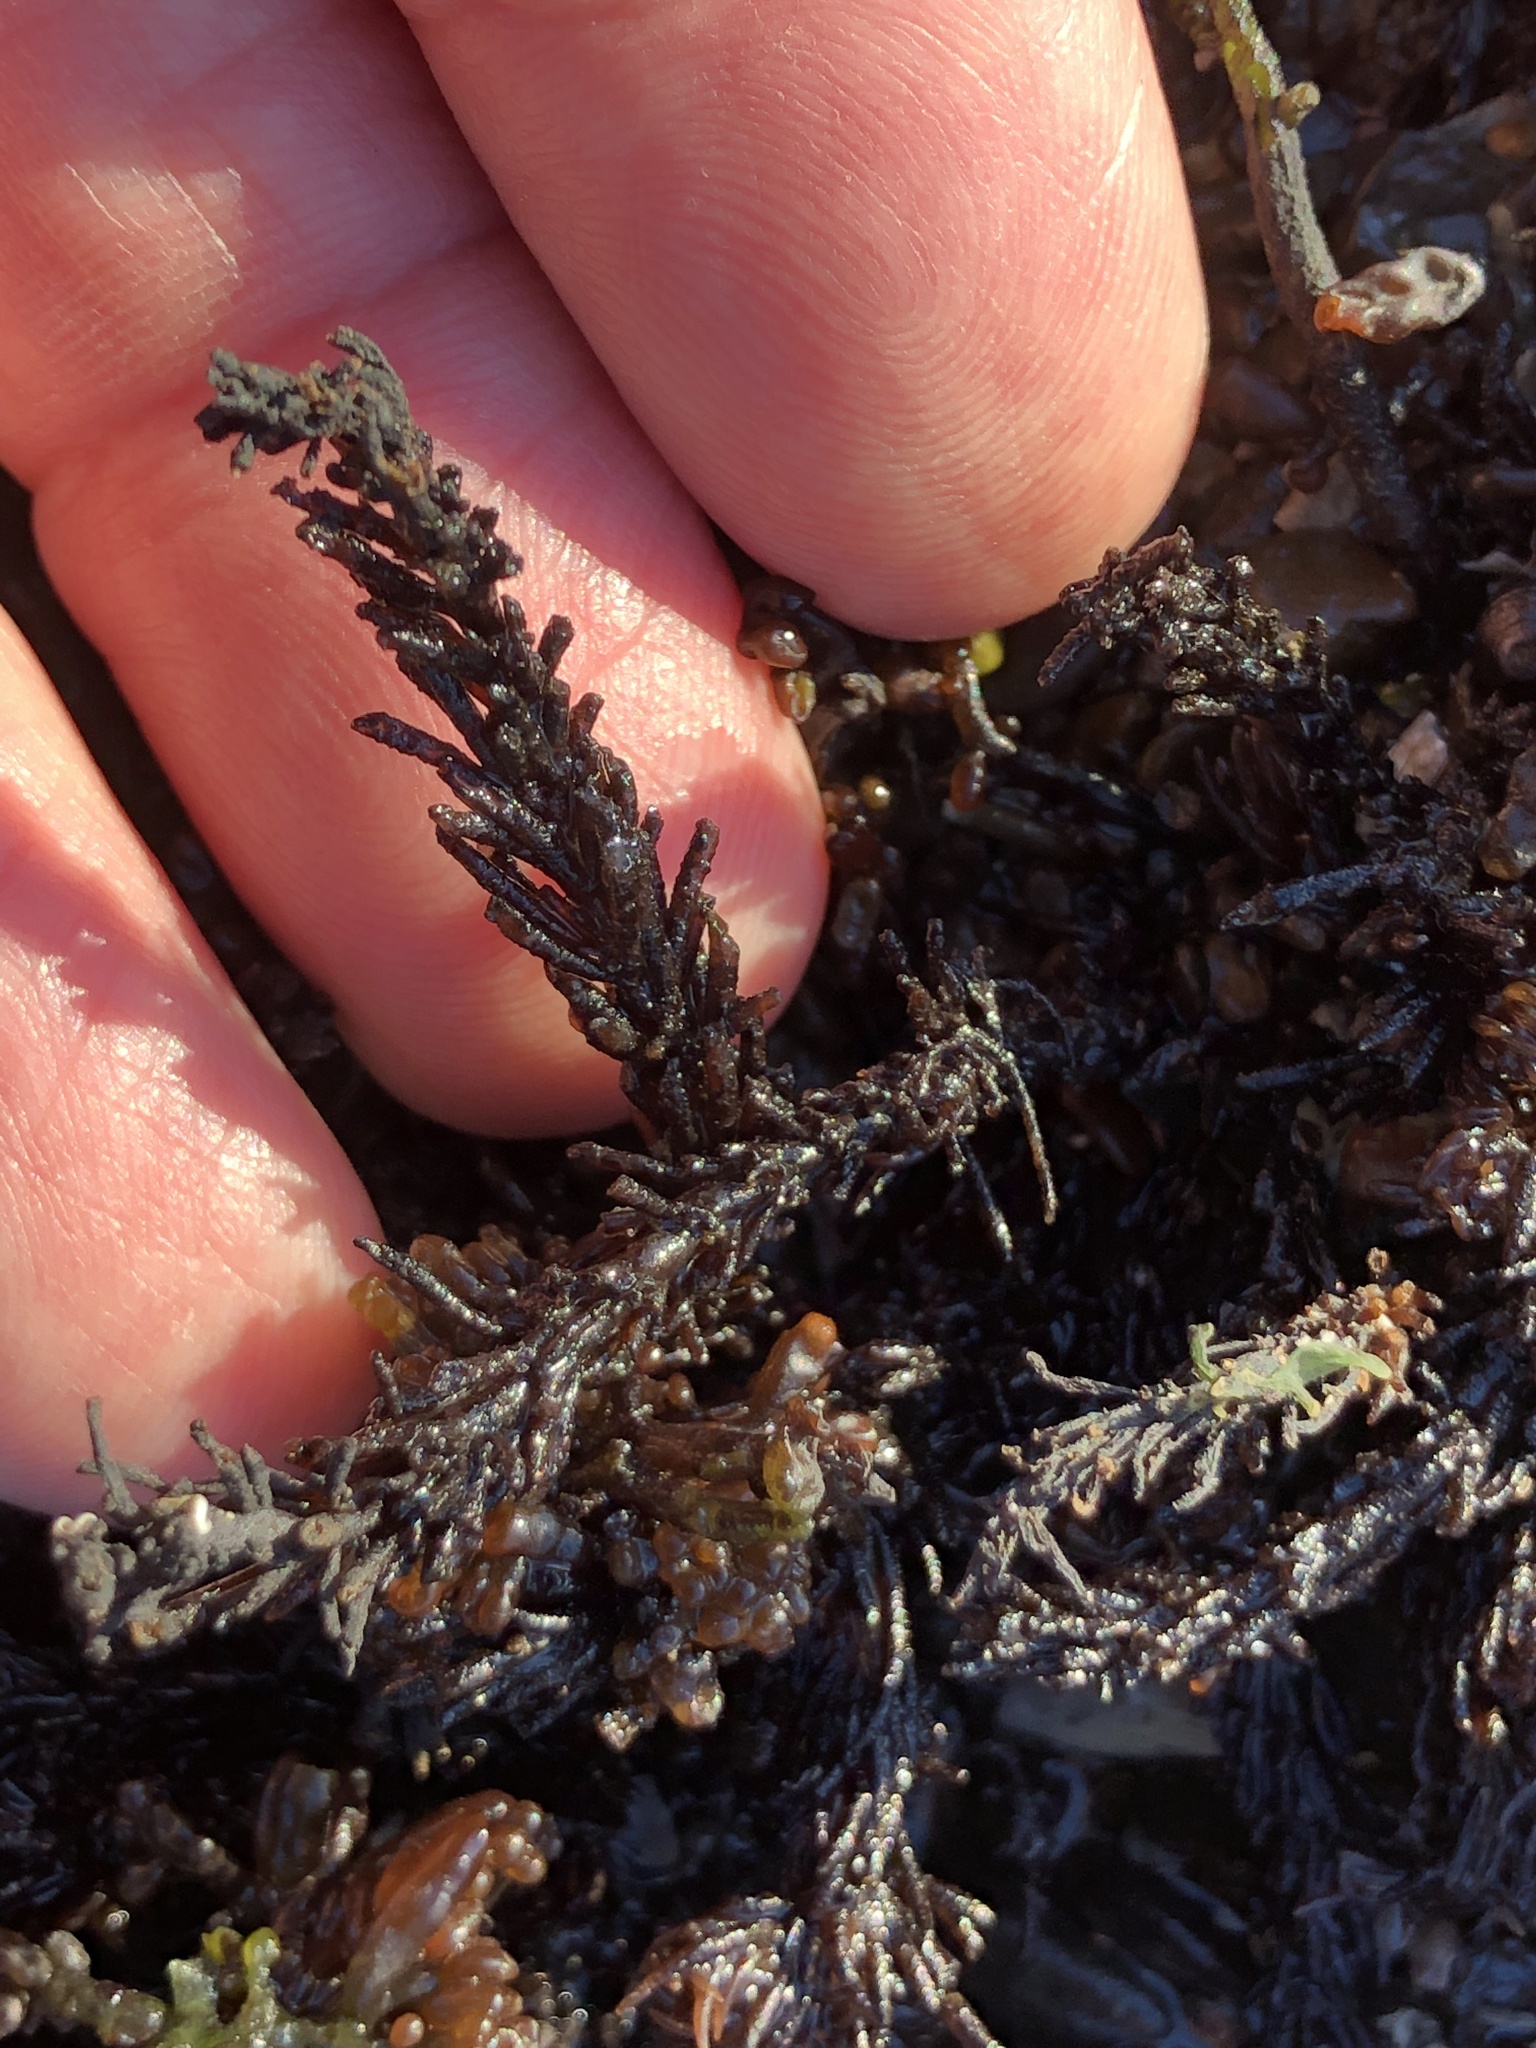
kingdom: Plantae
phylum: Rhodophyta
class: Florideophyceae
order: Ceramiales
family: Rhodomelaceae
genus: Neorhodomela
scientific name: Neorhodomela larix
